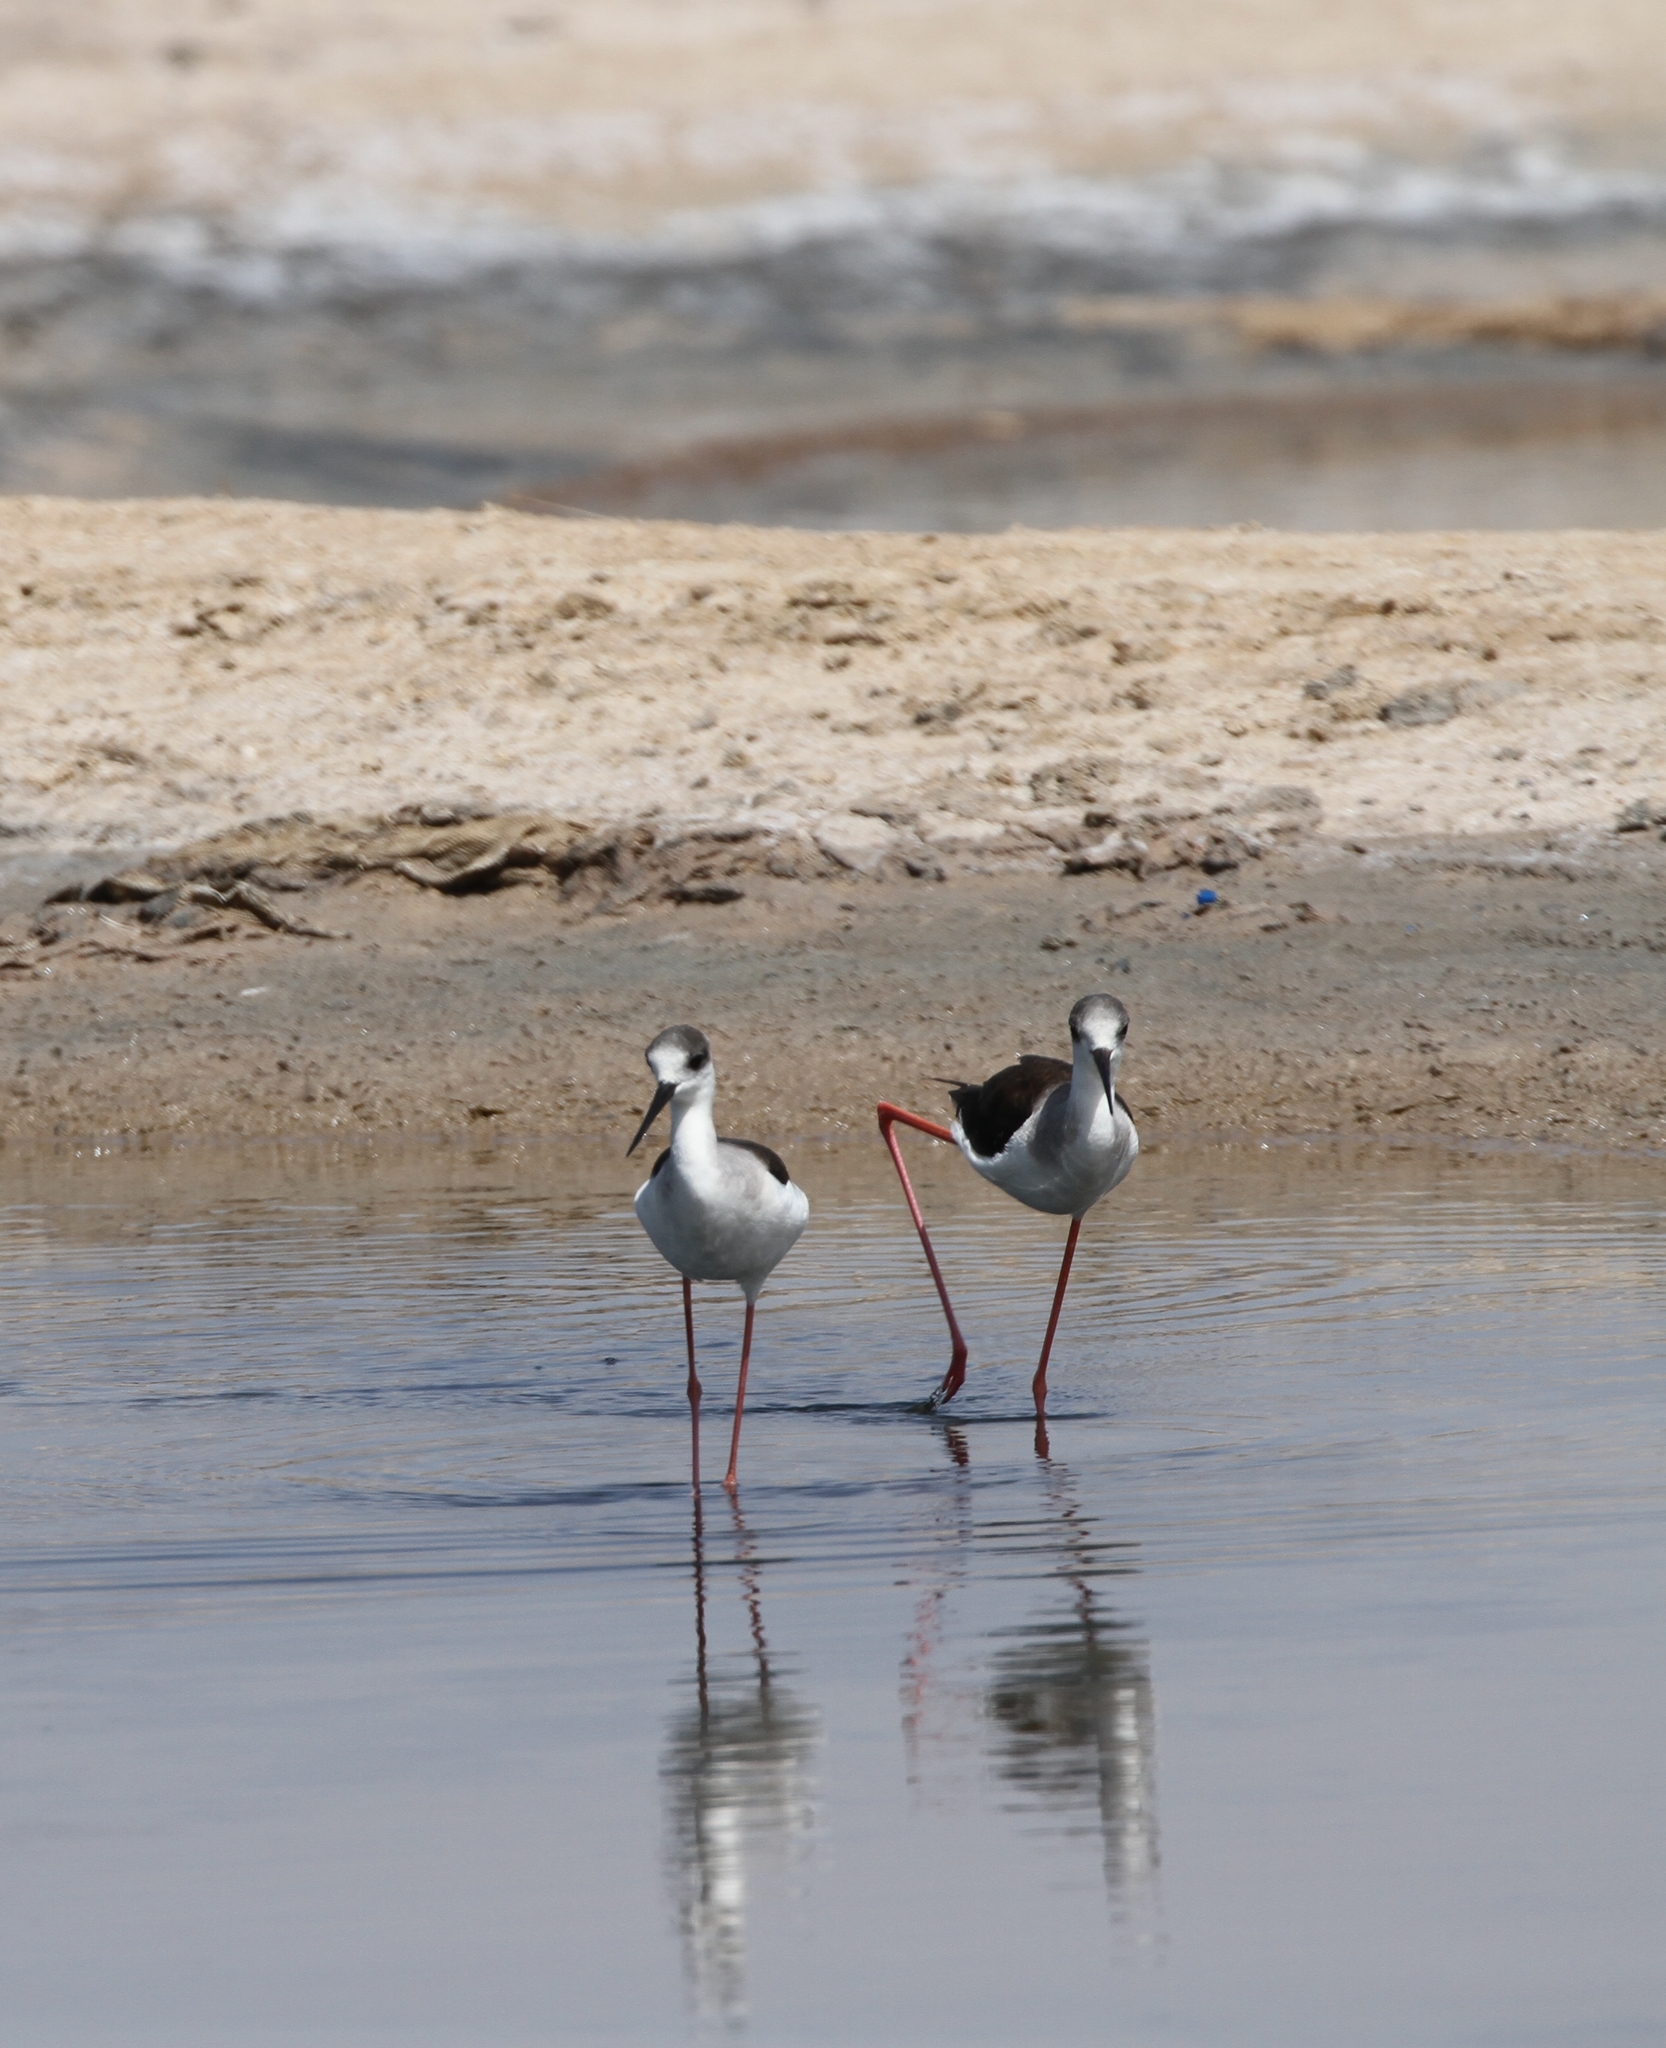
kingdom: Animalia
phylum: Chordata
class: Aves
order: Charadriiformes
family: Recurvirostridae
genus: Himantopus
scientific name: Himantopus himantopus
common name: Black-winged stilt
